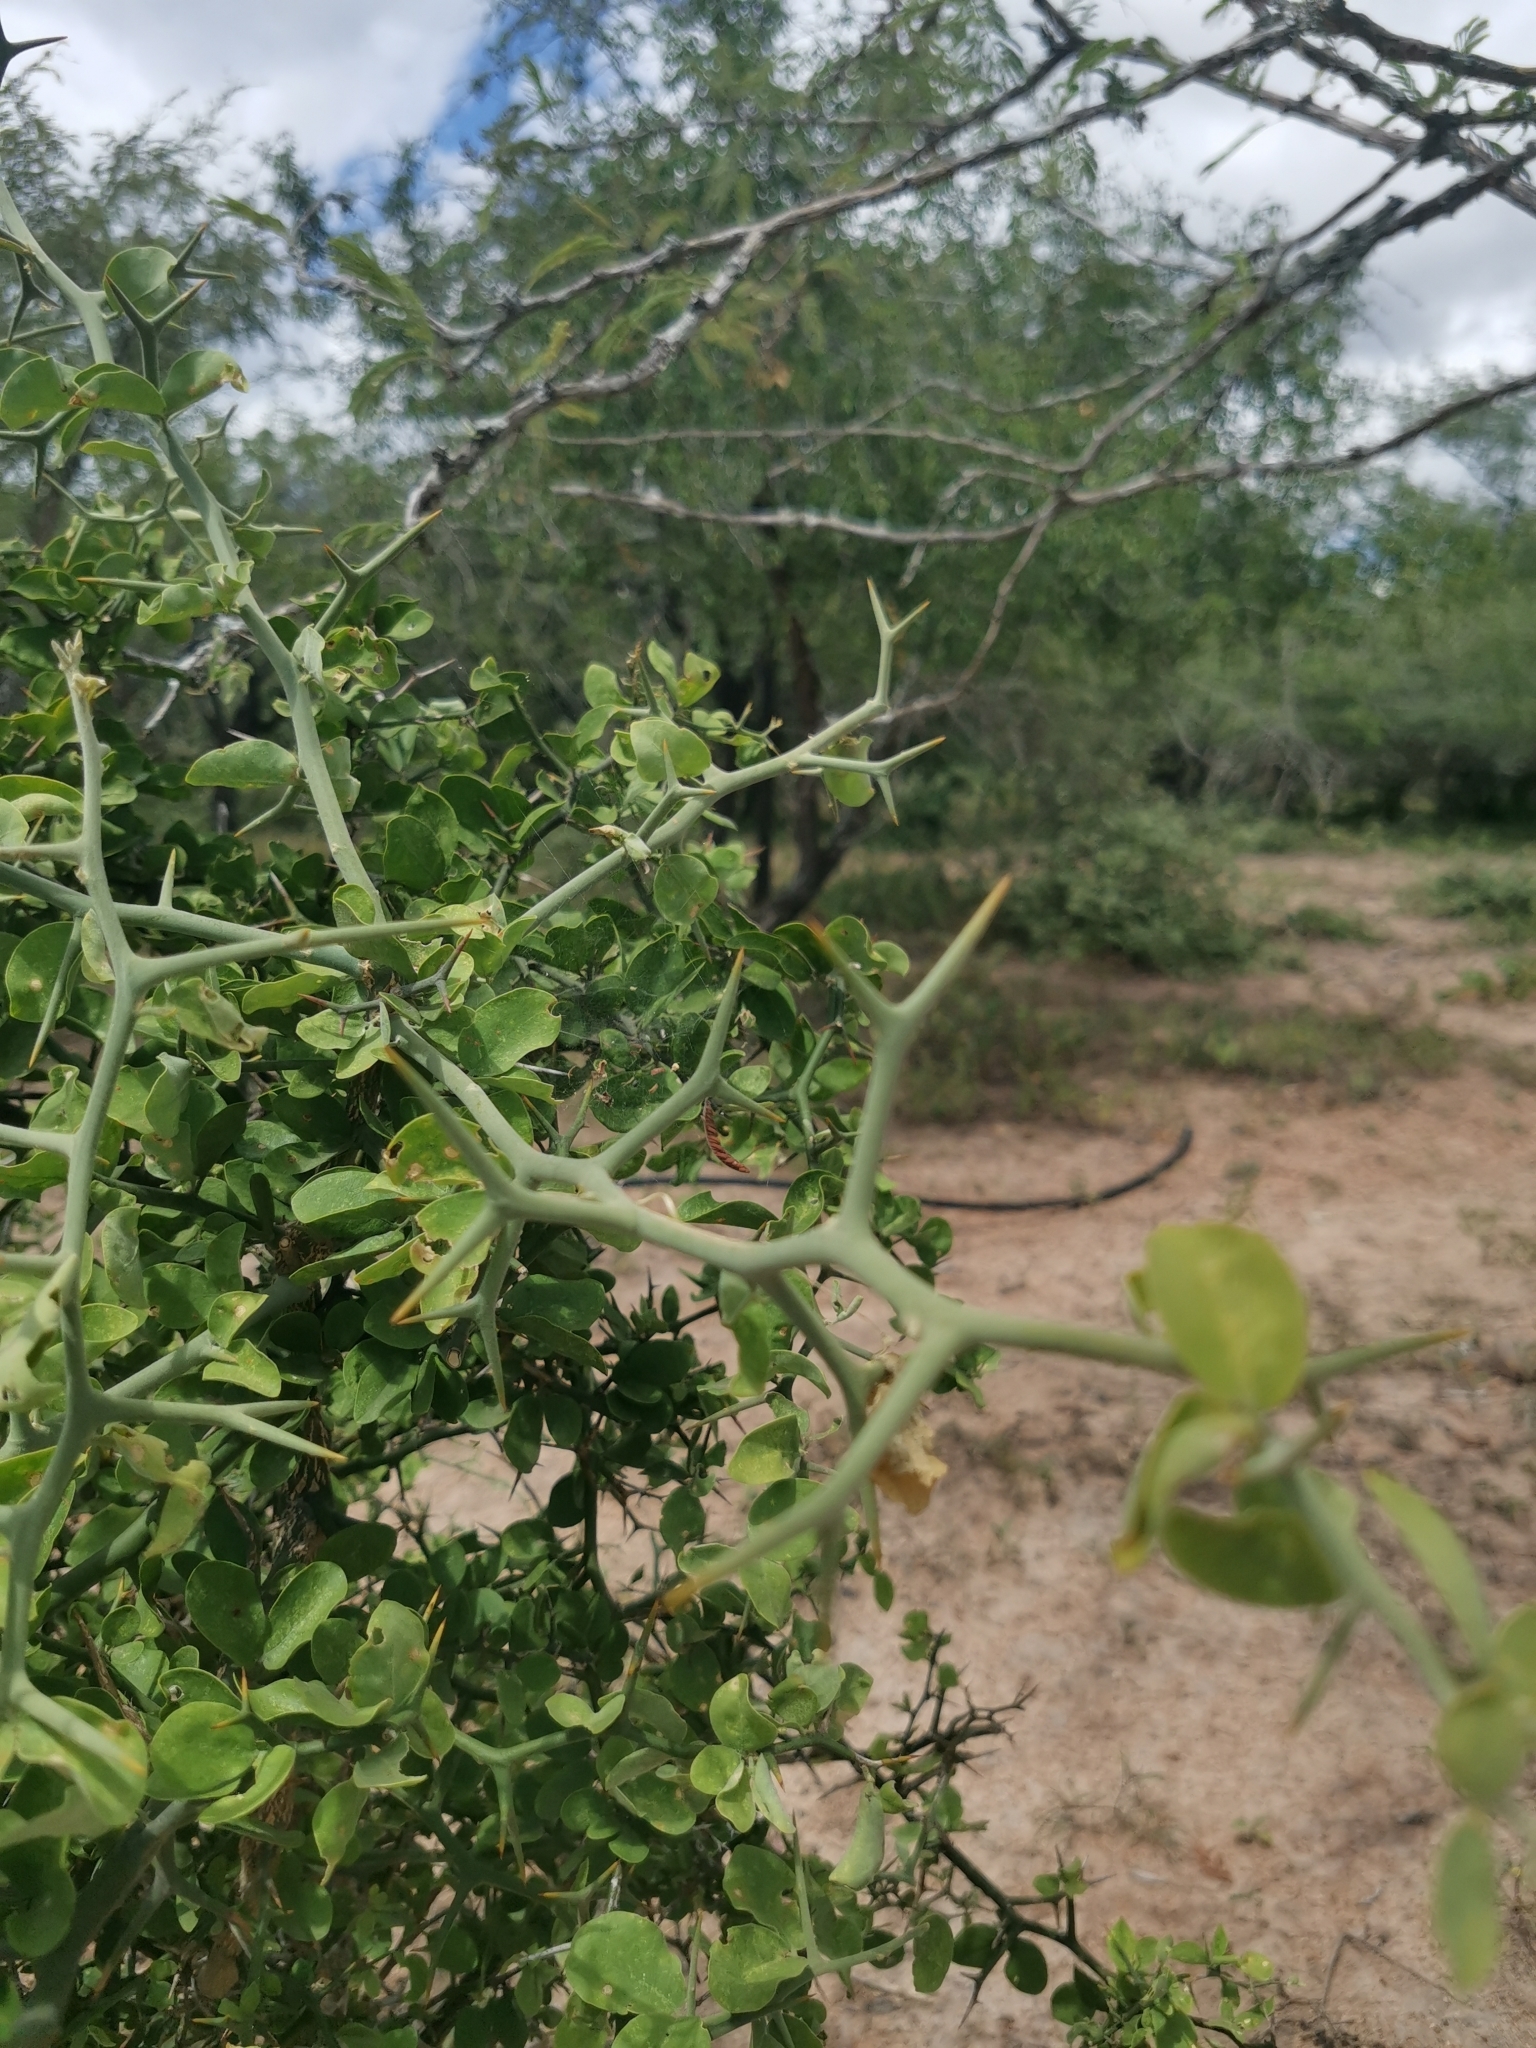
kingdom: Plantae
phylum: Tracheophyta
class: Magnoliopsida
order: Zygophyllales
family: Zygophyllaceae
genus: Balanites
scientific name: Balanites maughamii
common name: Torchwood
